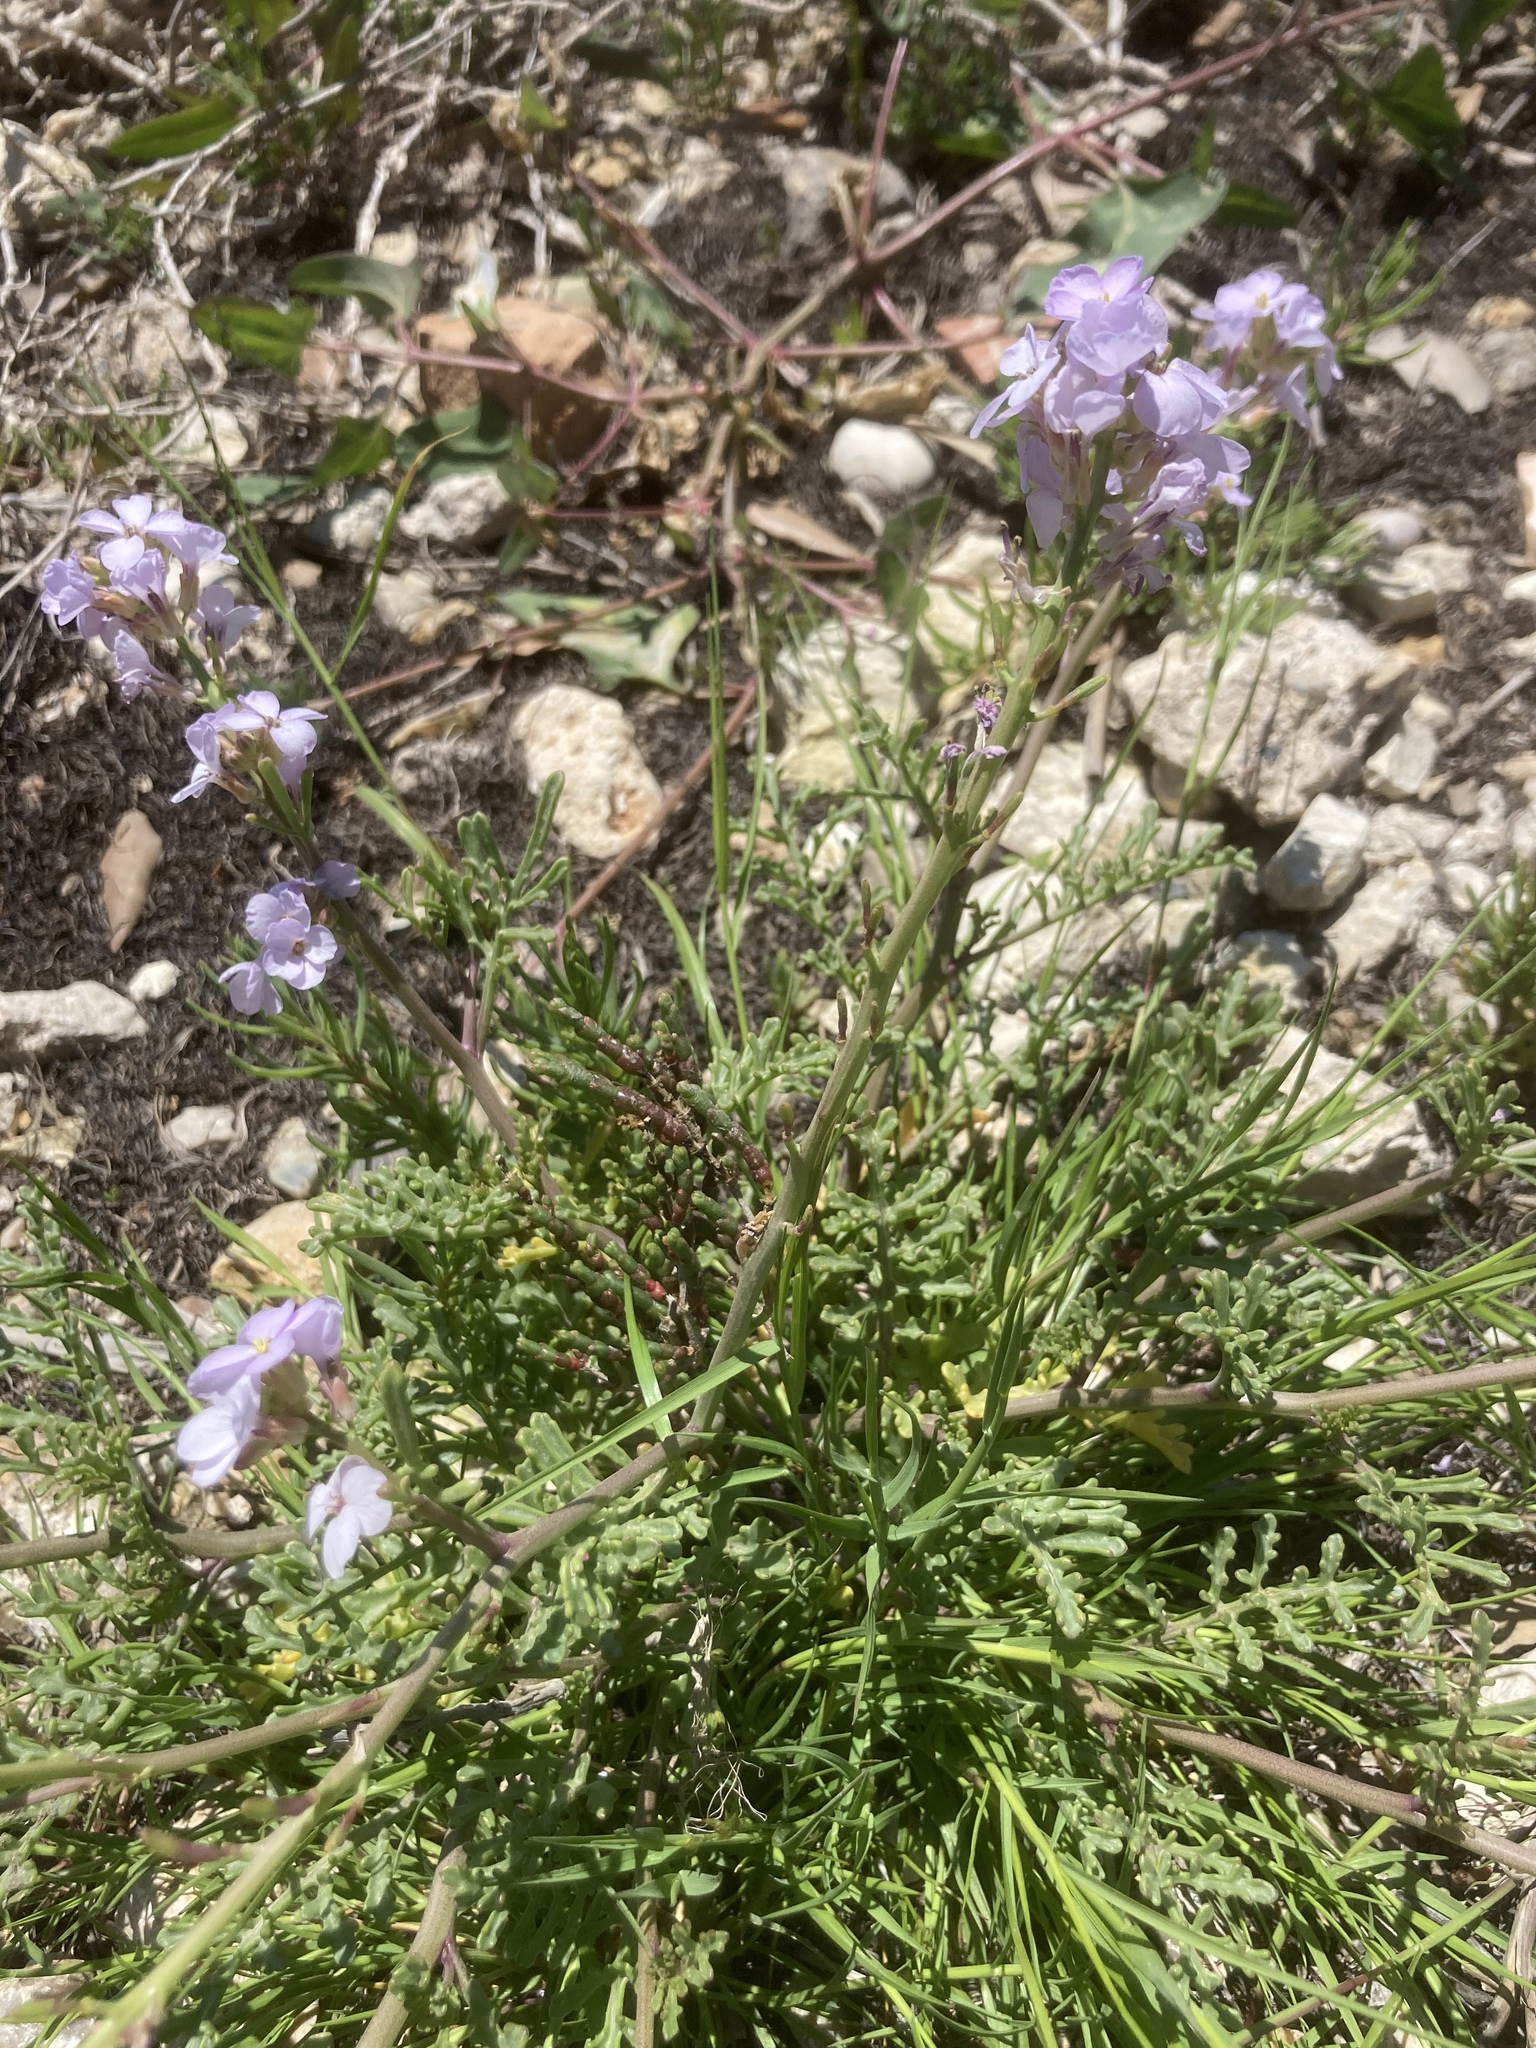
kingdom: Plantae
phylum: Tracheophyta
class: Magnoliopsida
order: Brassicales
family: Brassicaceae
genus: Cakile
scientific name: Cakile maritima
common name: Sea rocket
